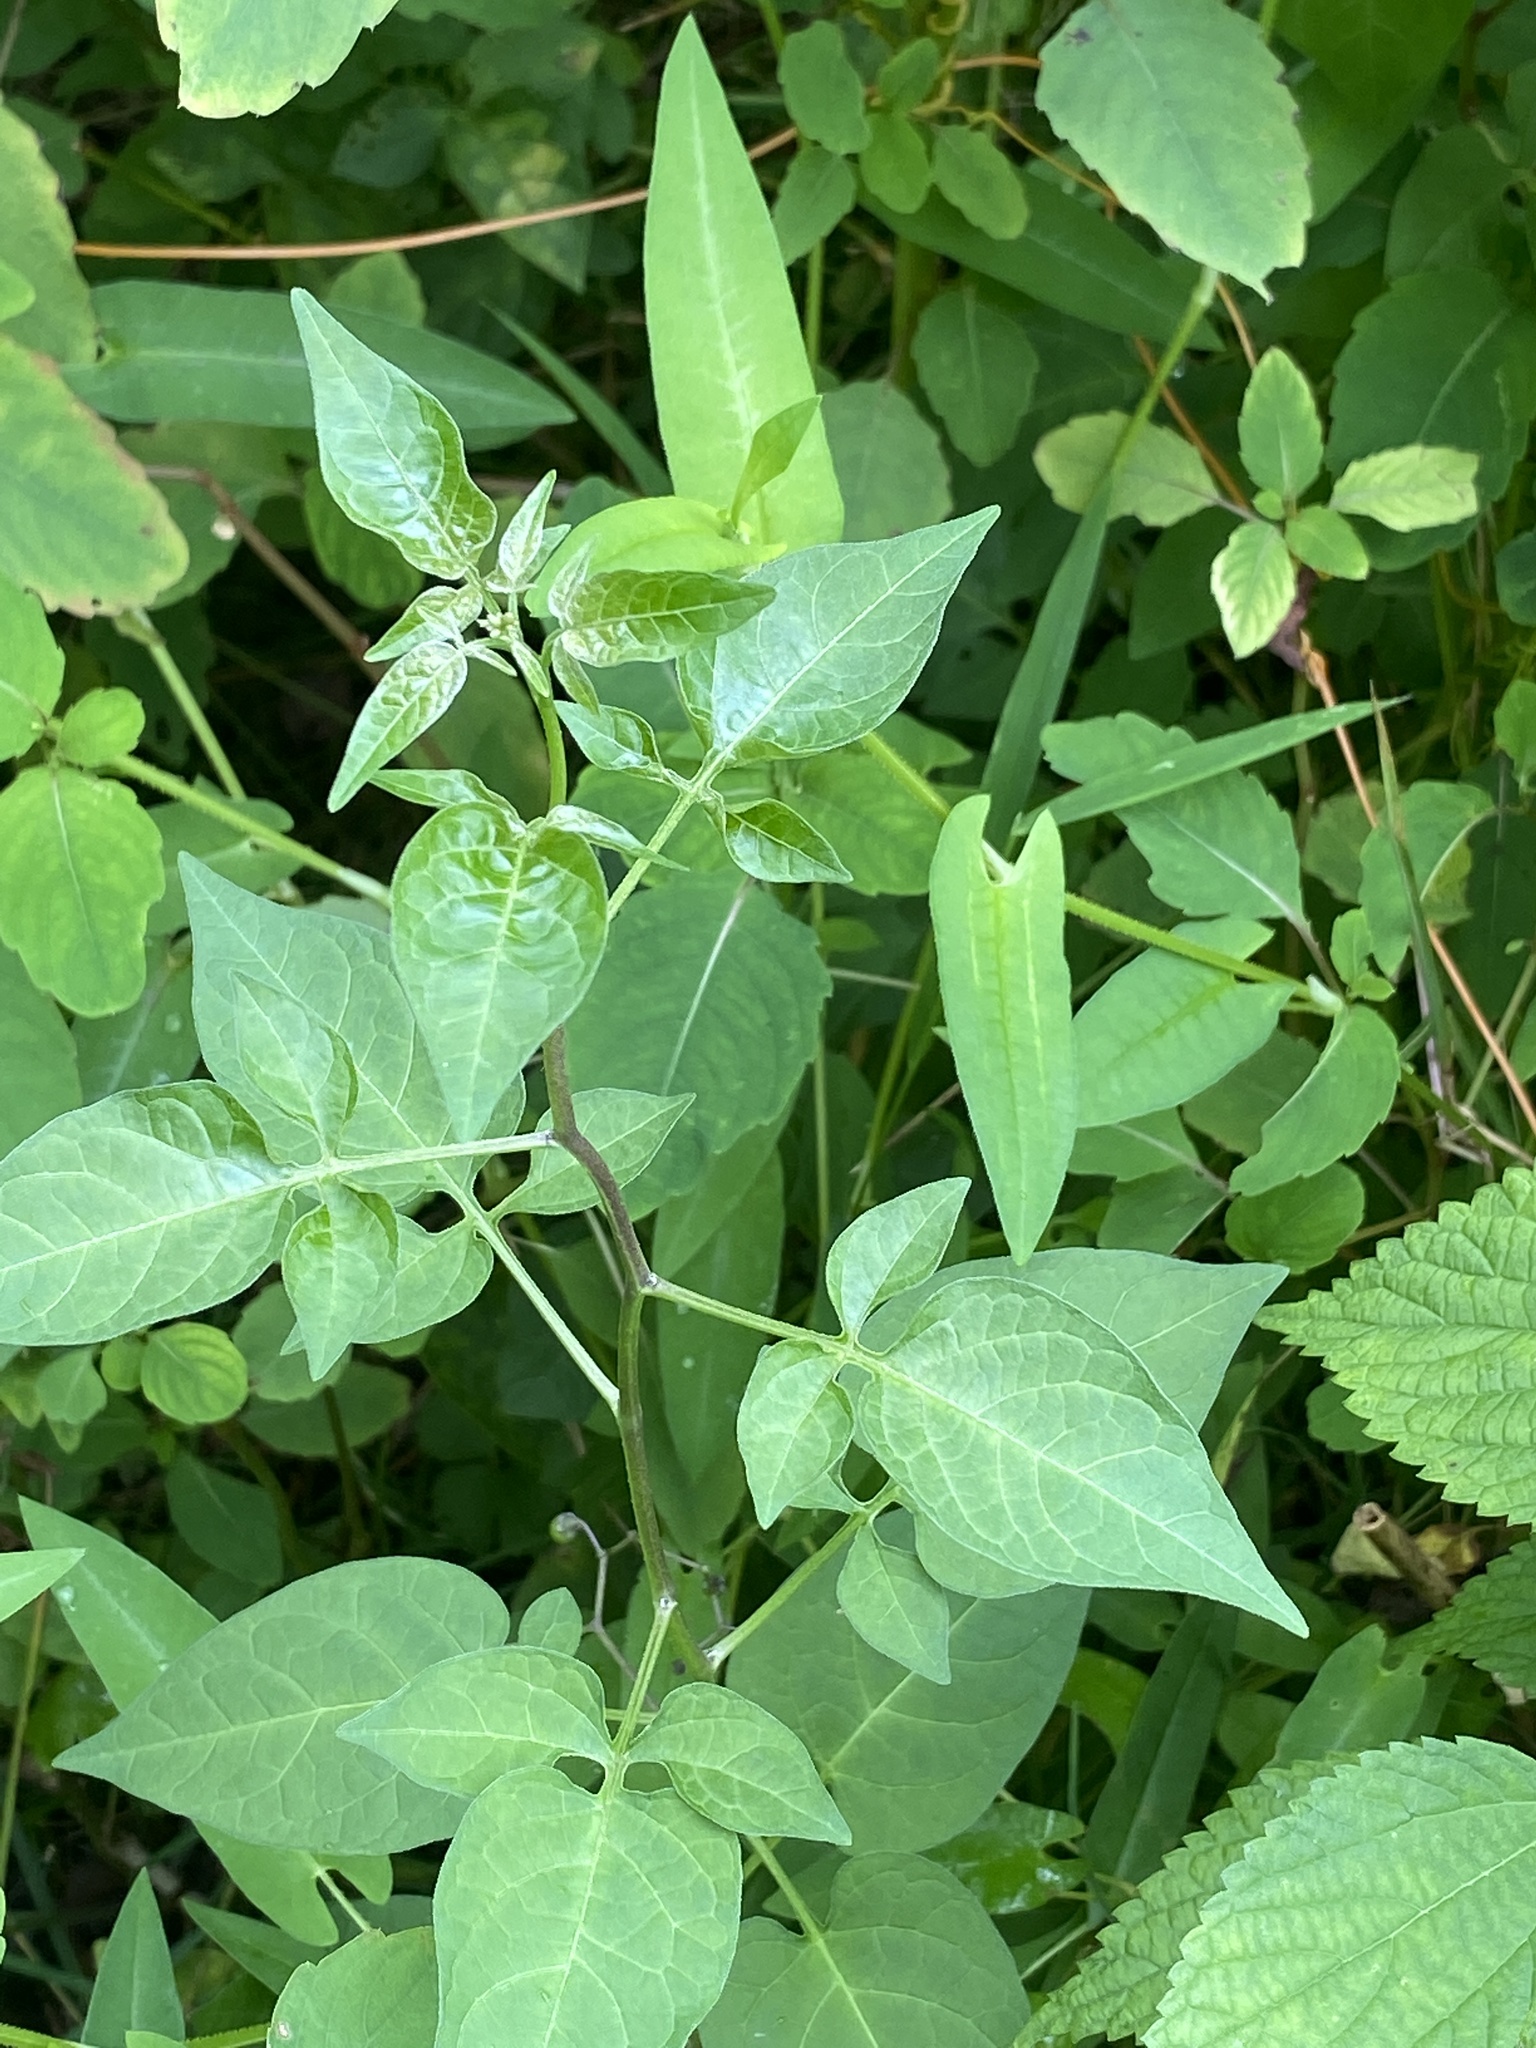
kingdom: Plantae
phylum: Tracheophyta
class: Magnoliopsida
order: Solanales
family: Solanaceae
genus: Solanum
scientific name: Solanum dulcamara
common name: Climbing nightshade
